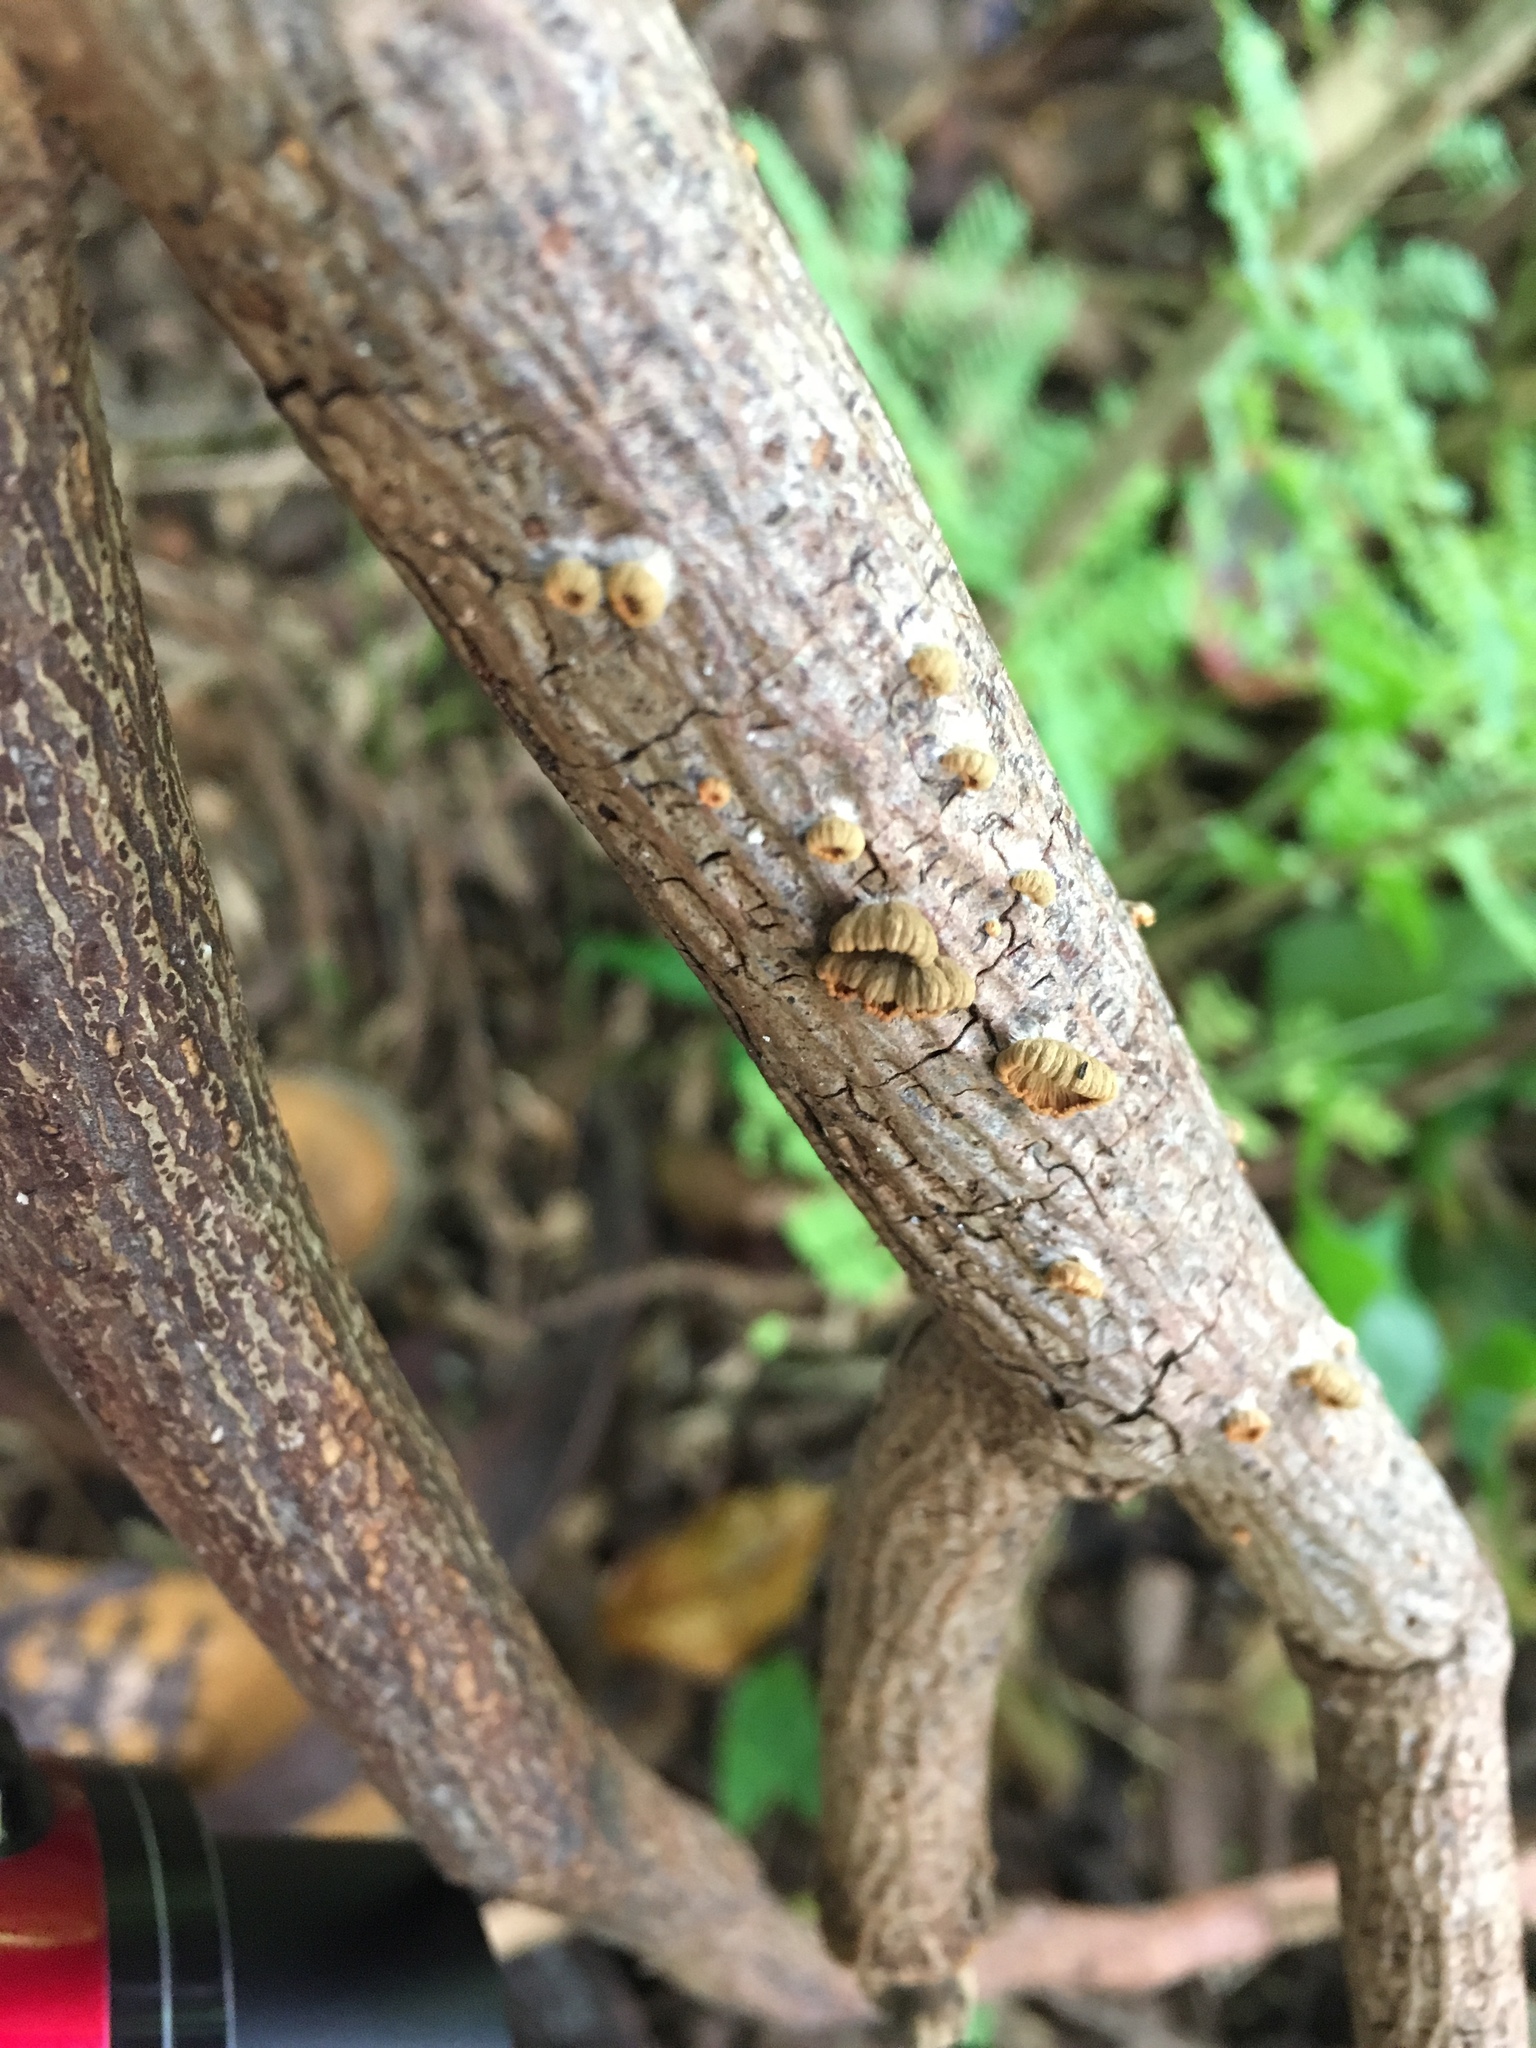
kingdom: Fungi
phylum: Basidiomycota
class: Agaricomycetes
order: Agaricales
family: Schizophyllaceae
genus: Schizophyllum
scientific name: Schizophyllum commune
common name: Common porecrust
